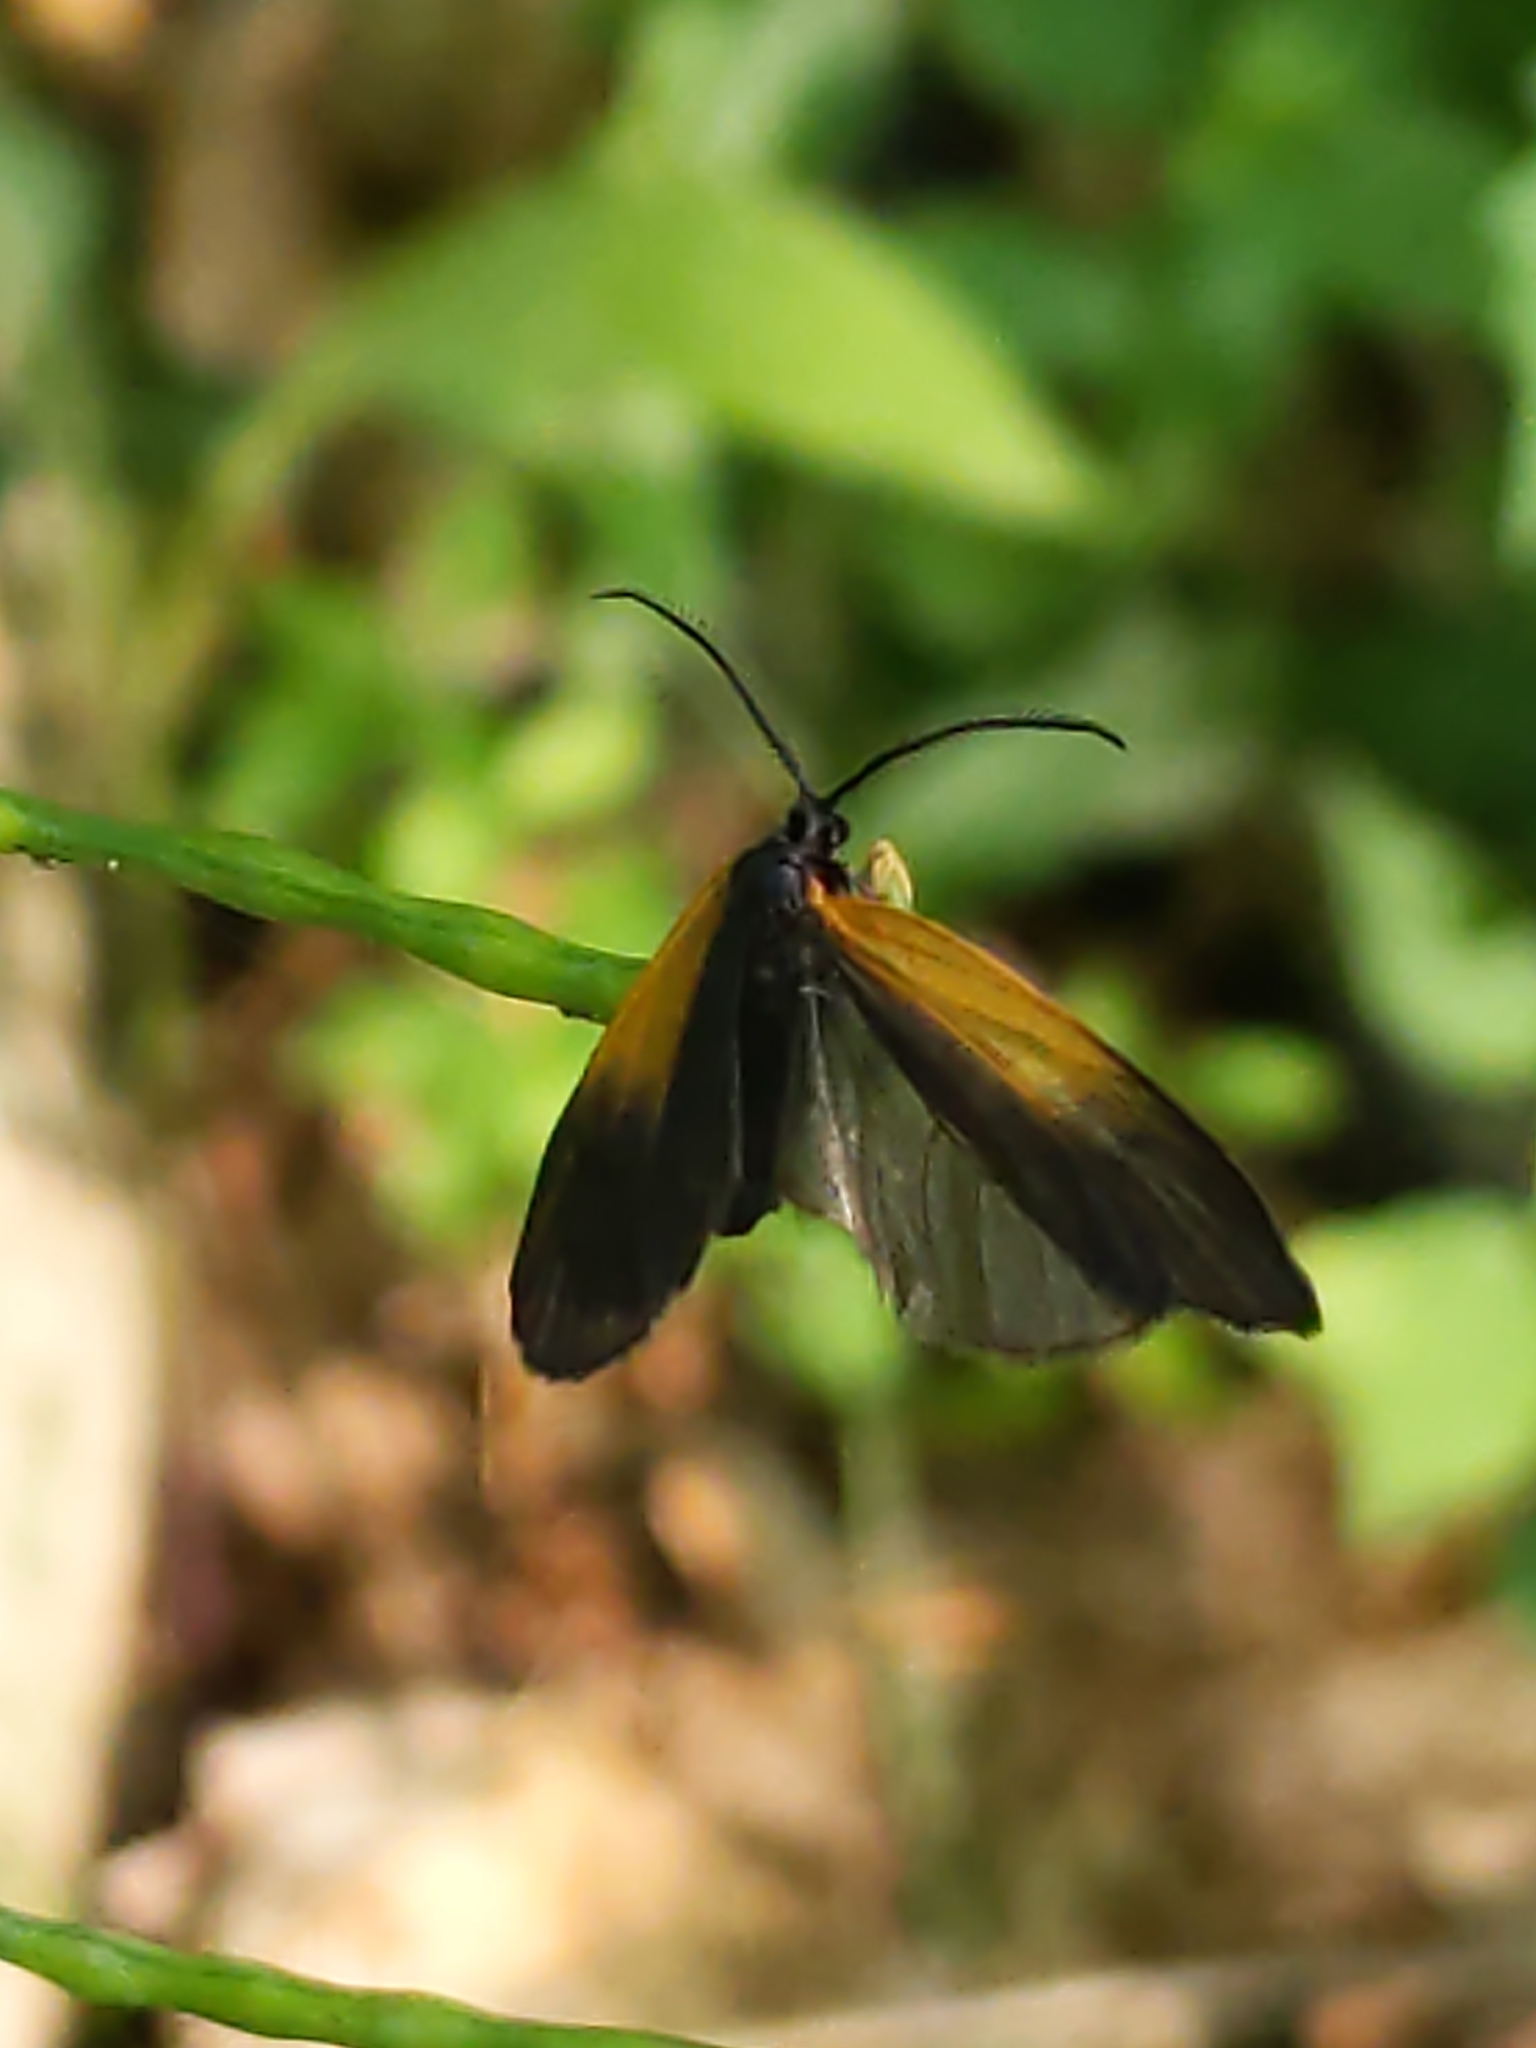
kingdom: Animalia
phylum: Arthropoda
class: Insecta
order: Lepidoptera
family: Zygaenidae
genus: Malthaca
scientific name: Malthaca dimidiata
